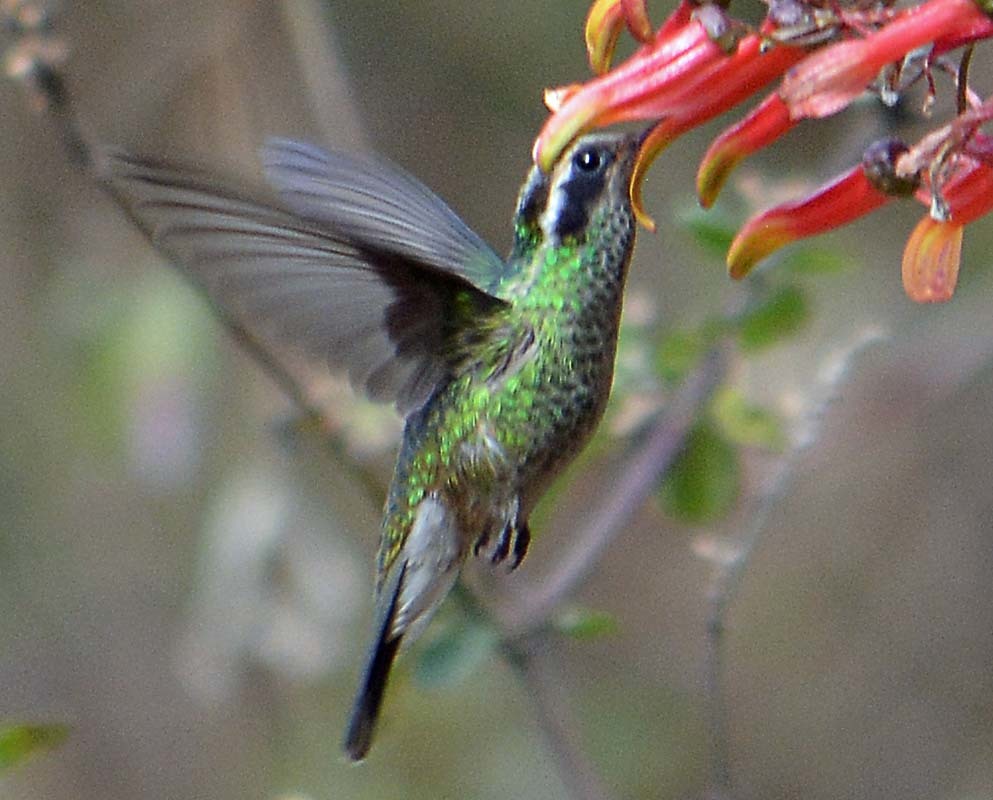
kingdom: Animalia
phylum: Chordata
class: Aves
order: Apodiformes
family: Trochilidae
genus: Basilinna
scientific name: Basilinna leucotis
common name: White-eared hummingbird
